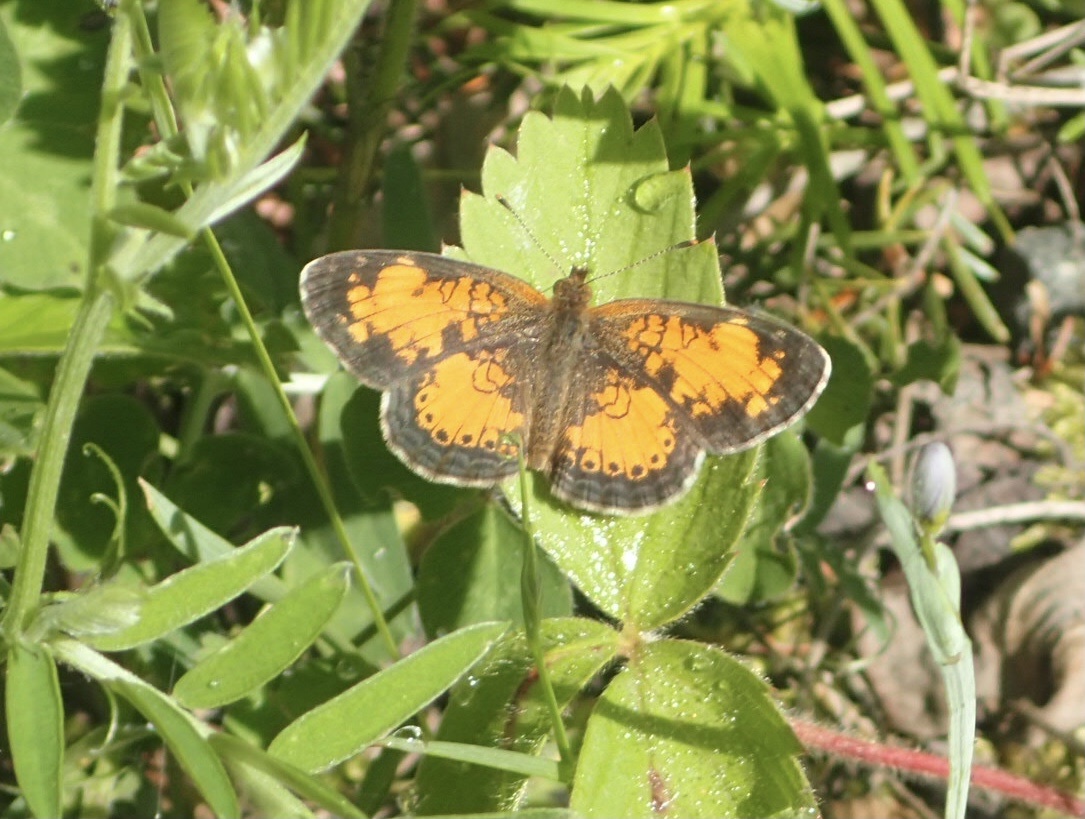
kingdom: Animalia
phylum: Arthropoda
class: Insecta
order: Lepidoptera
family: Nymphalidae
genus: Phyciodes
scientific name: Phyciodes tharos
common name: Pearl crescent
